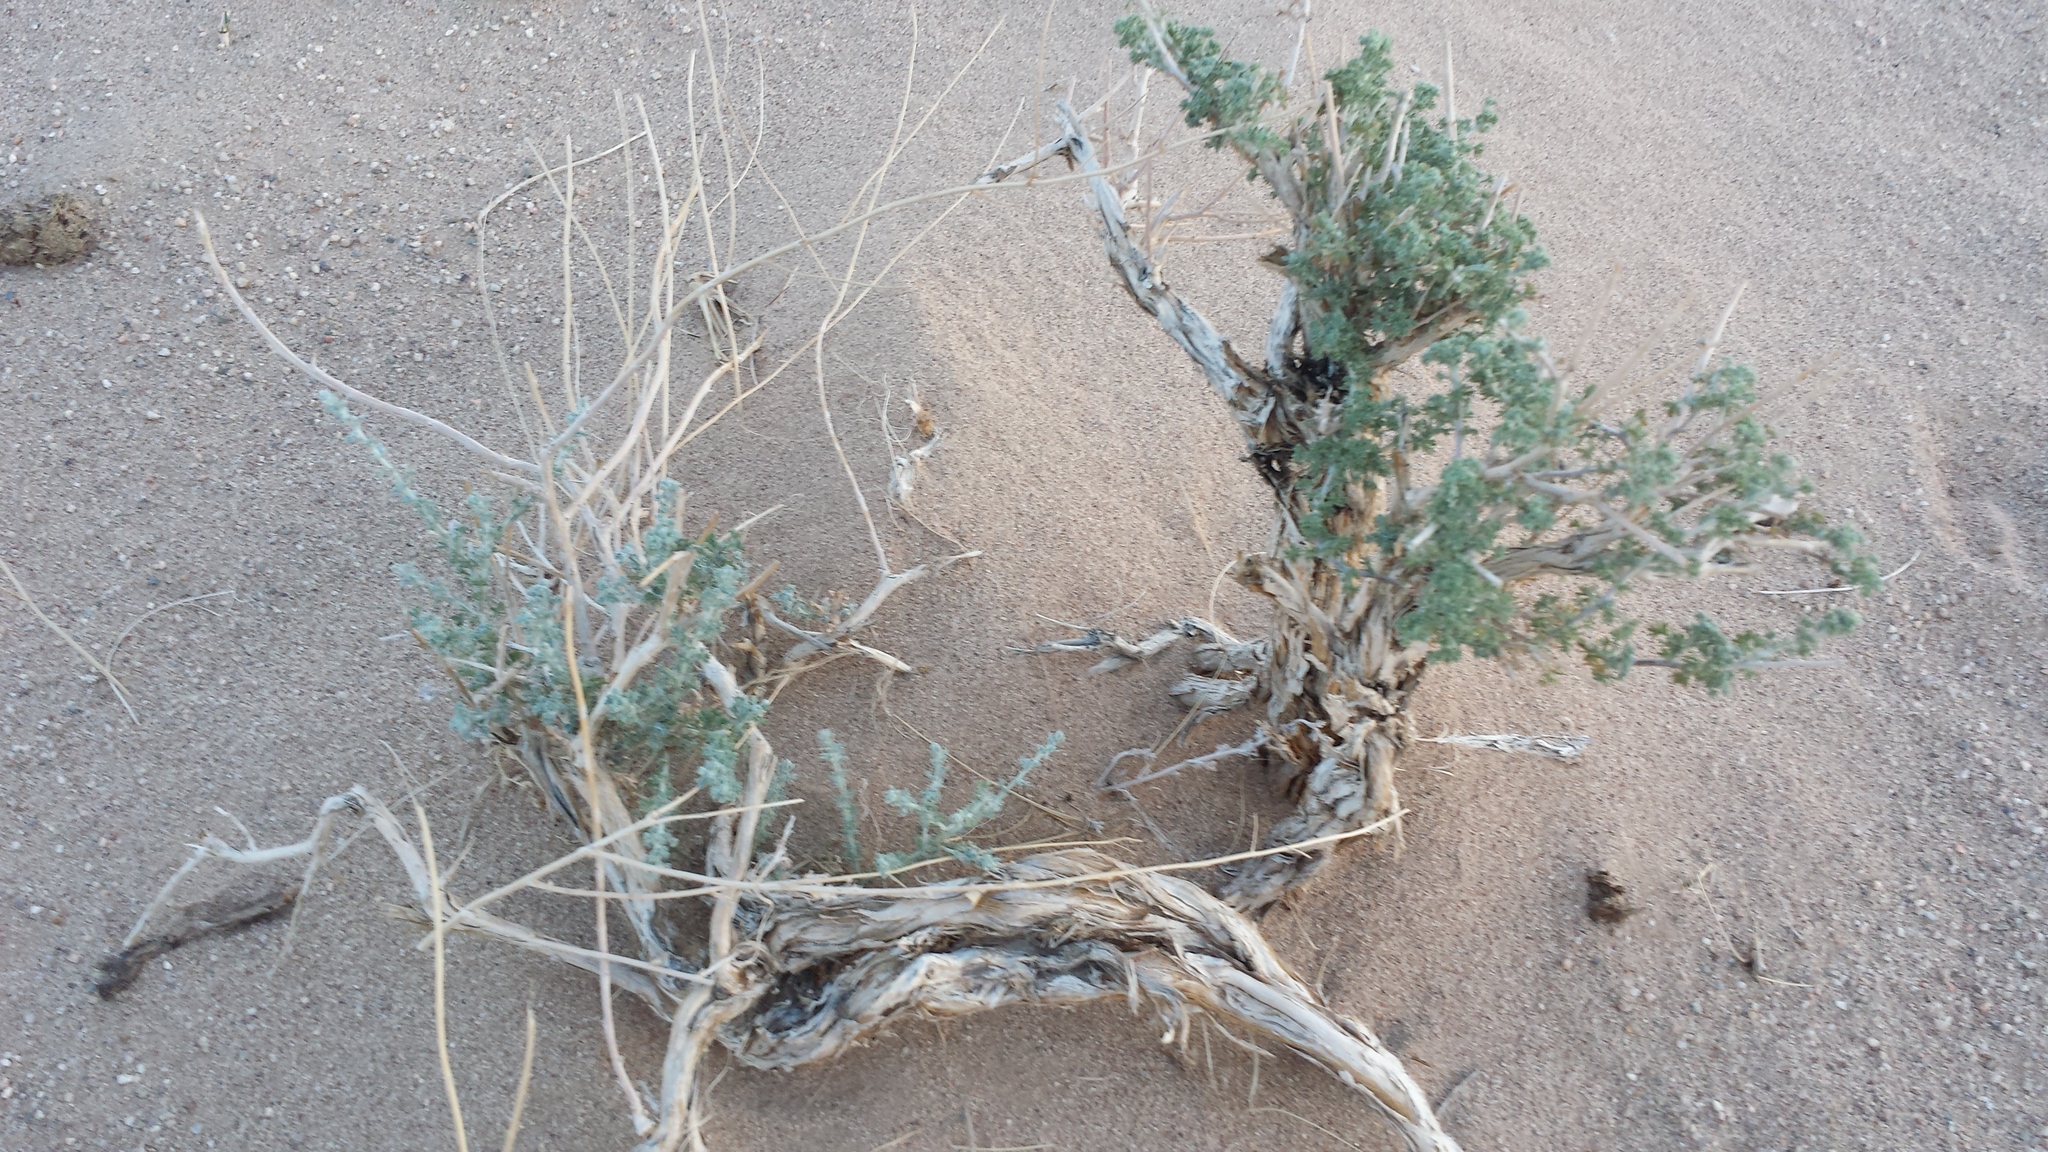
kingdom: Plantae
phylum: Tracheophyta
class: Magnoliopsida
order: Asterales
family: Asteraceae
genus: Artemisia
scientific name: Artemisia xerophytica
